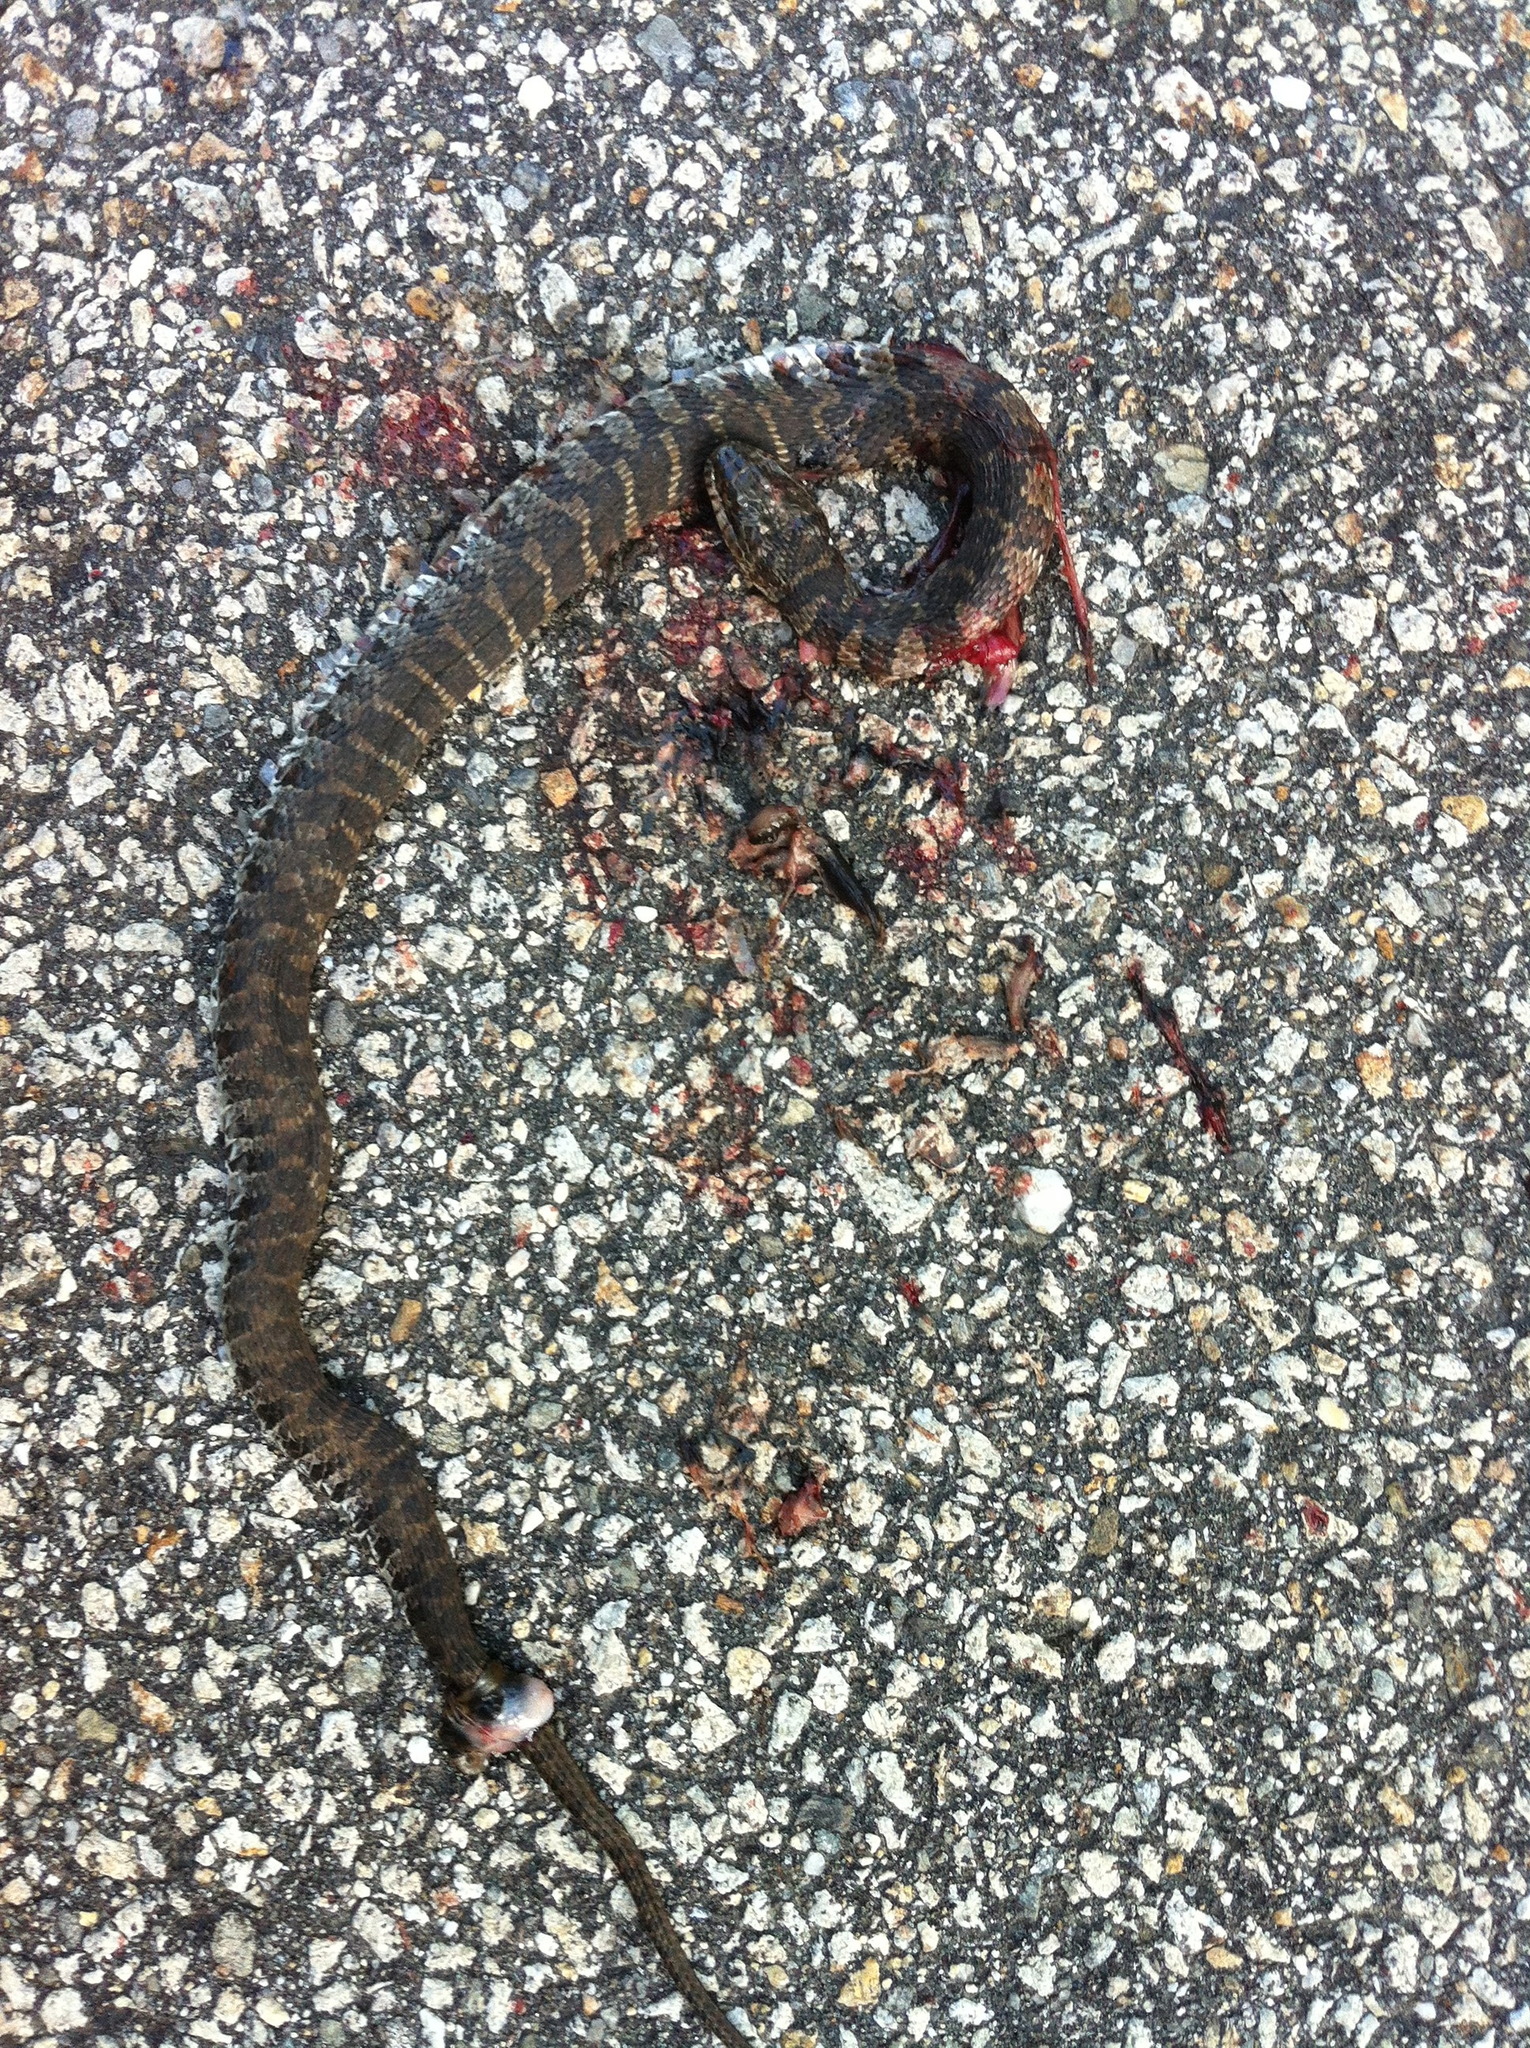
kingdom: Animalia
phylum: Chordata
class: Squamata
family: Colubridae
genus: Nerodia
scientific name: Nerodia sipedon
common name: Northern water snake
